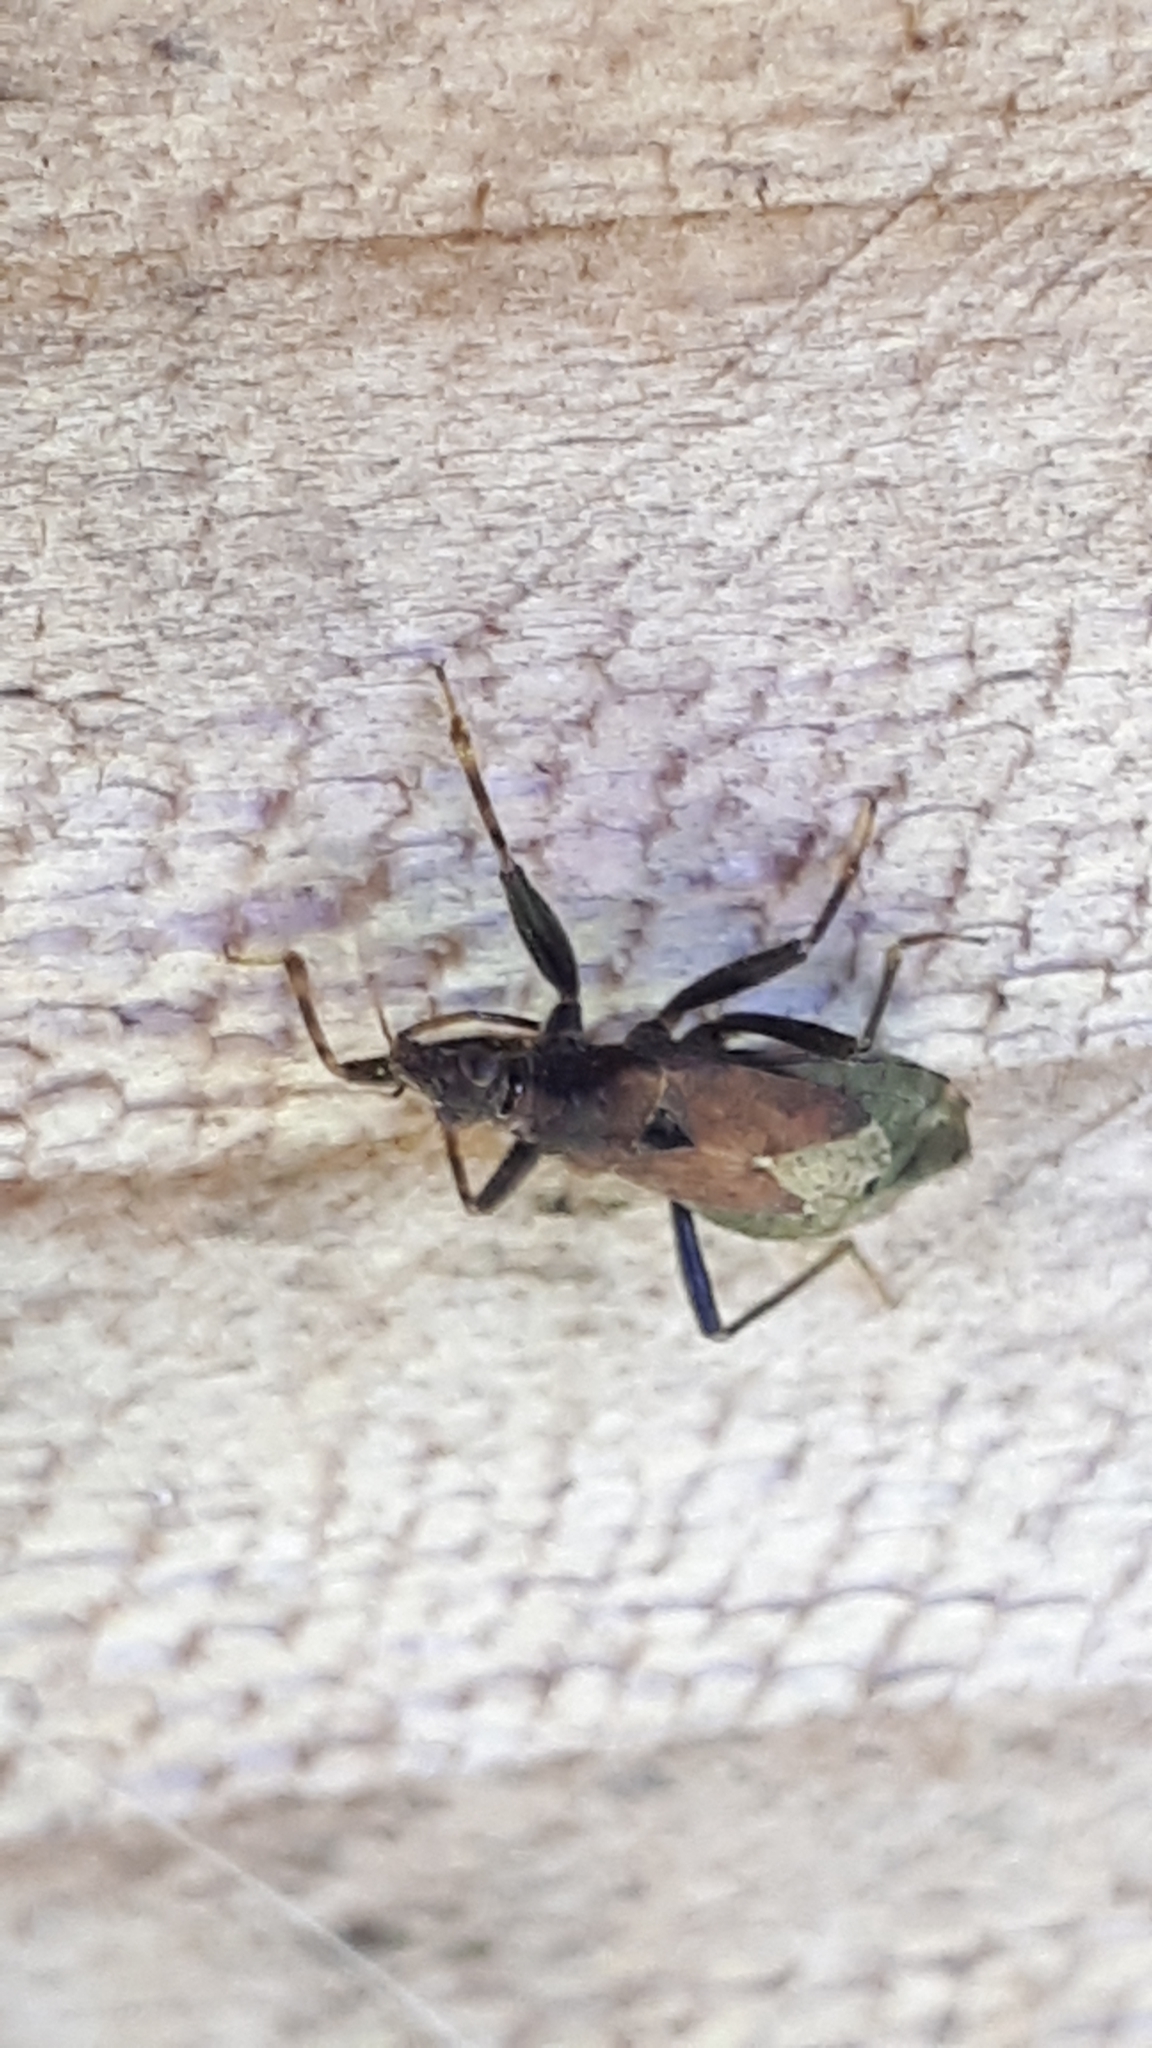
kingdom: Animalia
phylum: Arthropoda
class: Insecta
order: Hemiptera
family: Nabidae
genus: Himacerus
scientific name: Himacerus mirmicoides
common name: Ant damsel bug
